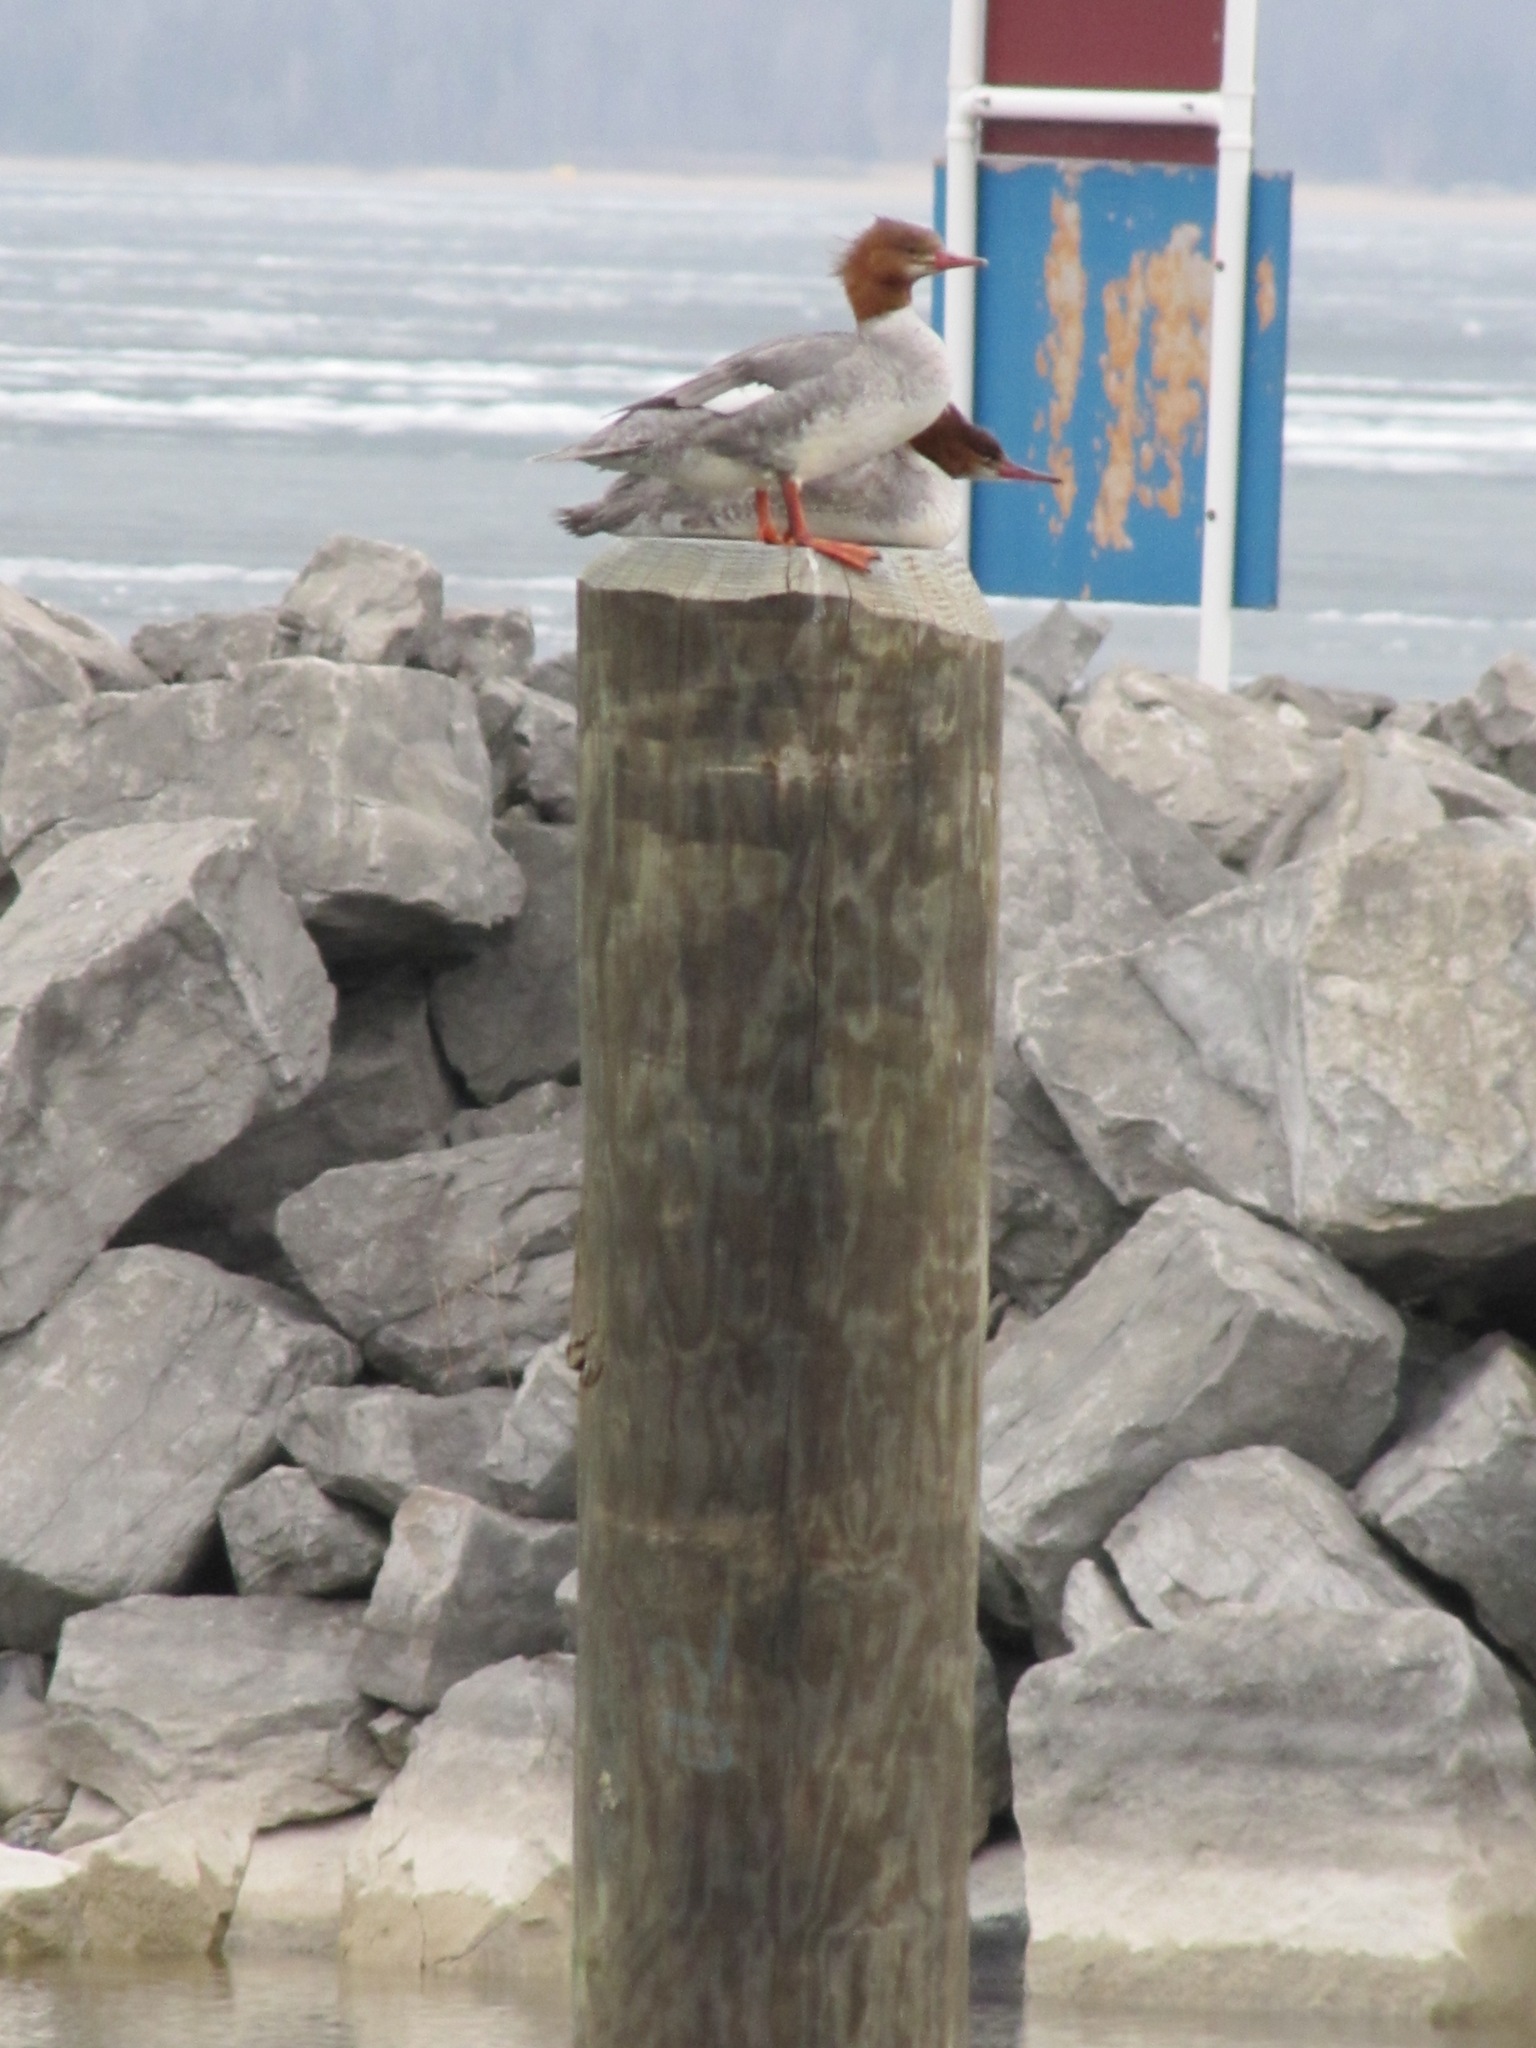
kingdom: Animalia
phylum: Chordata
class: Aves
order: Anseriformes
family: Anatidae
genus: Mergus
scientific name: Mergus merganser
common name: Common merganser
